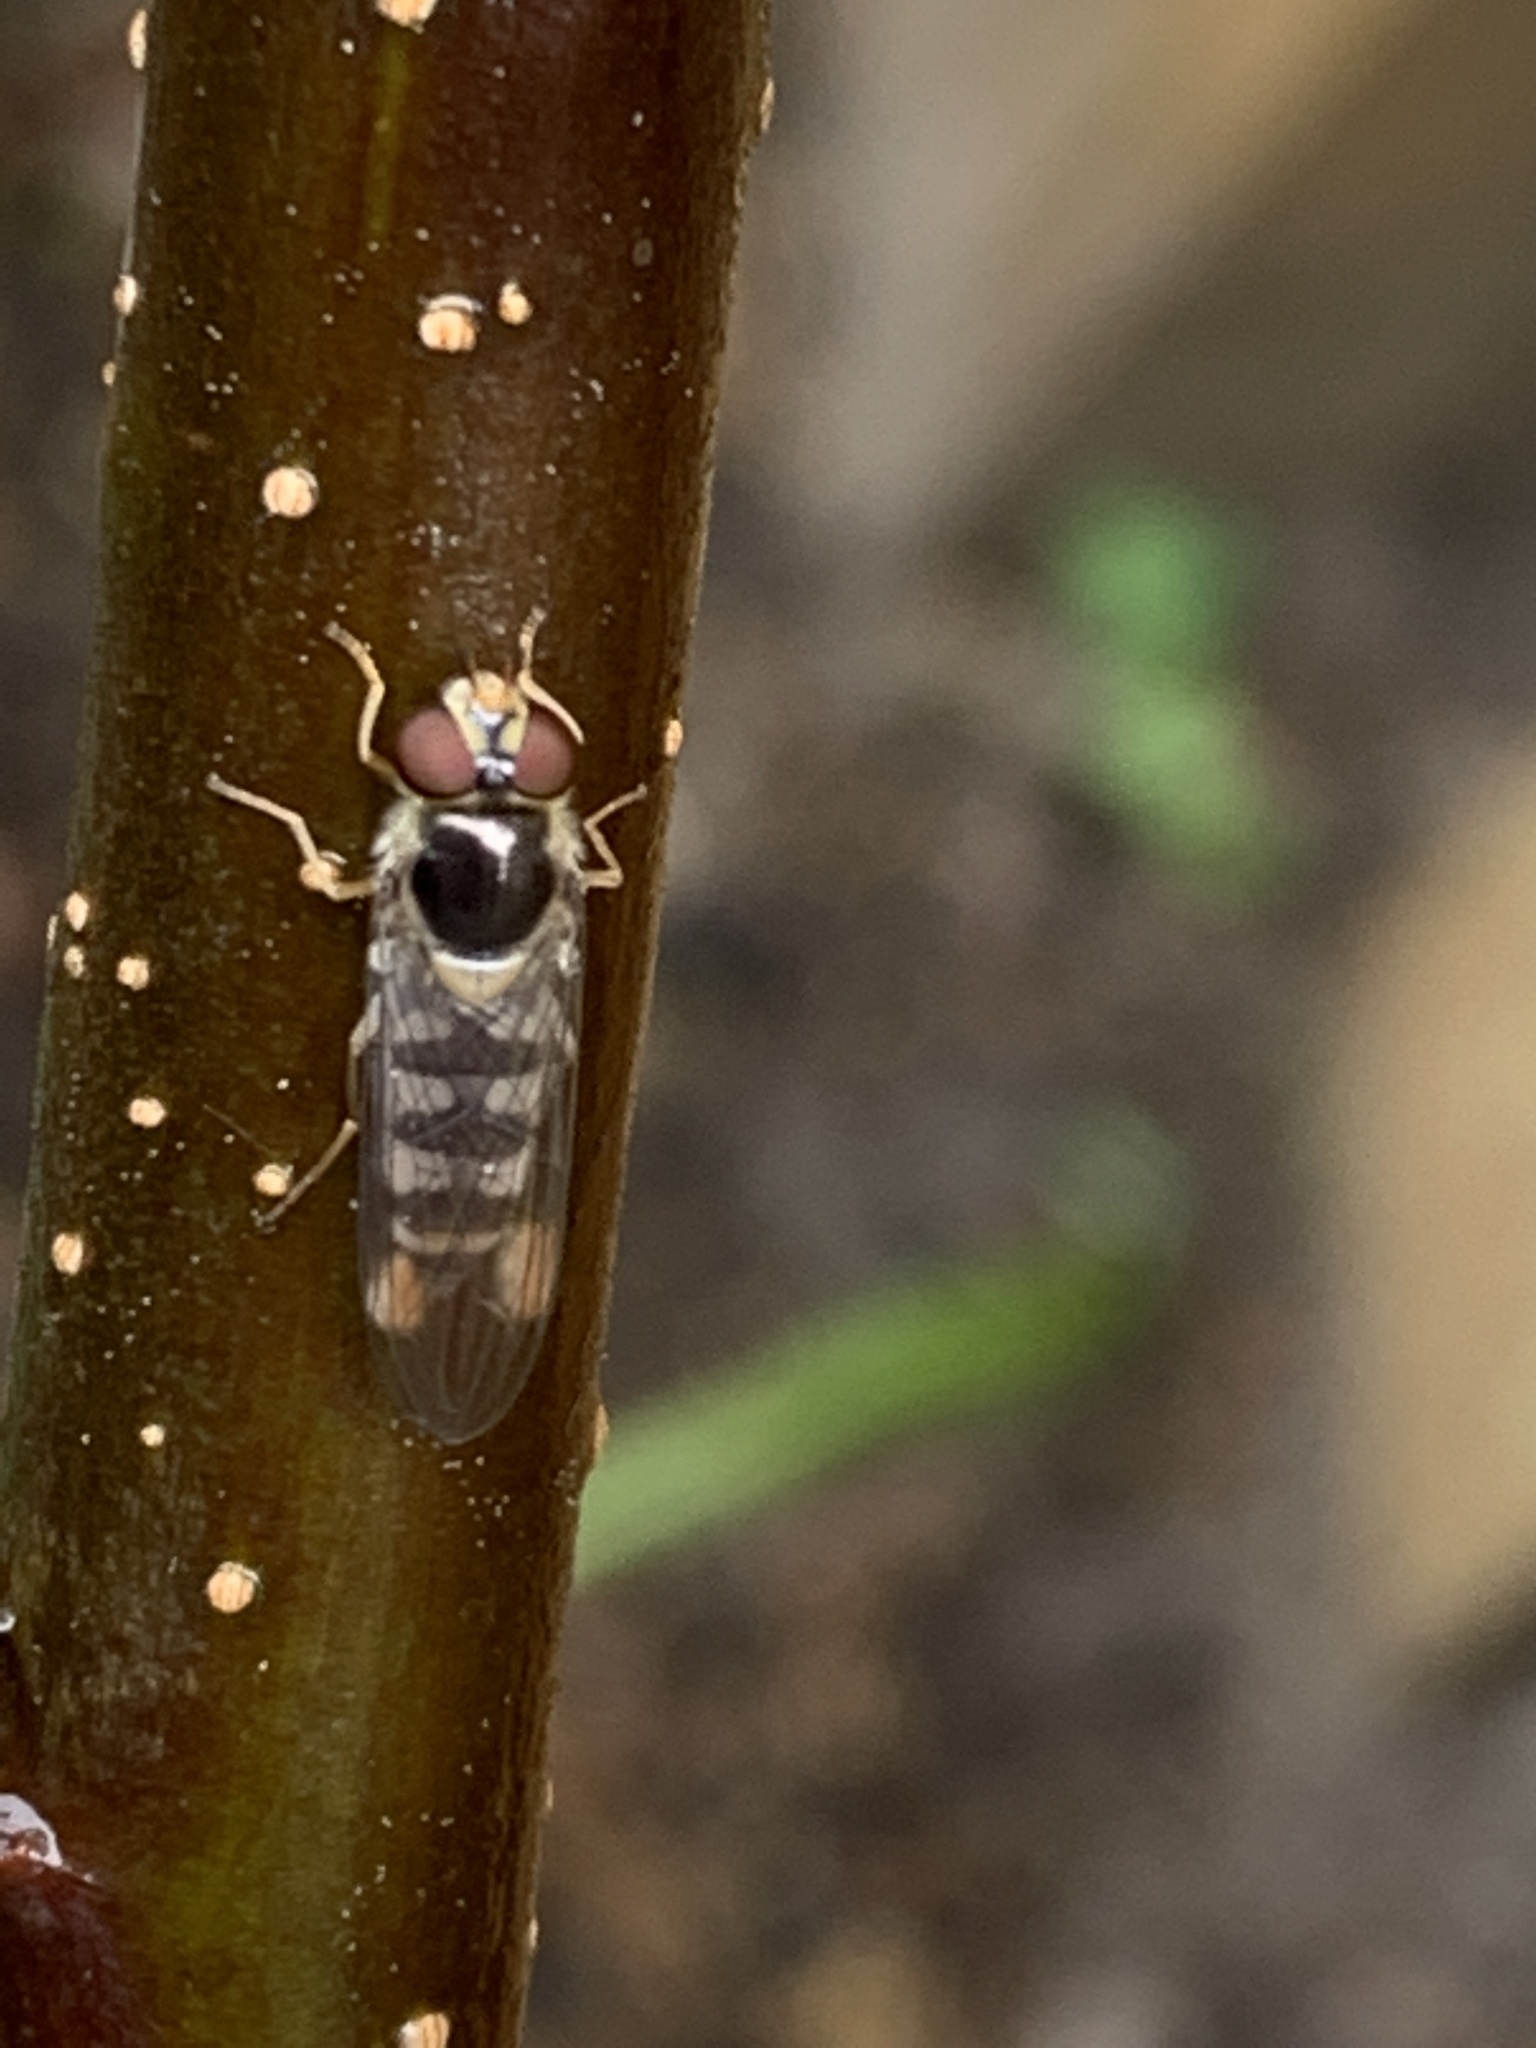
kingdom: Animalia
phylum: Arthropoda
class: Insecta
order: Diptera
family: Syrphidae
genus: Meliscaeva
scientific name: Meliscaeva auricollis
